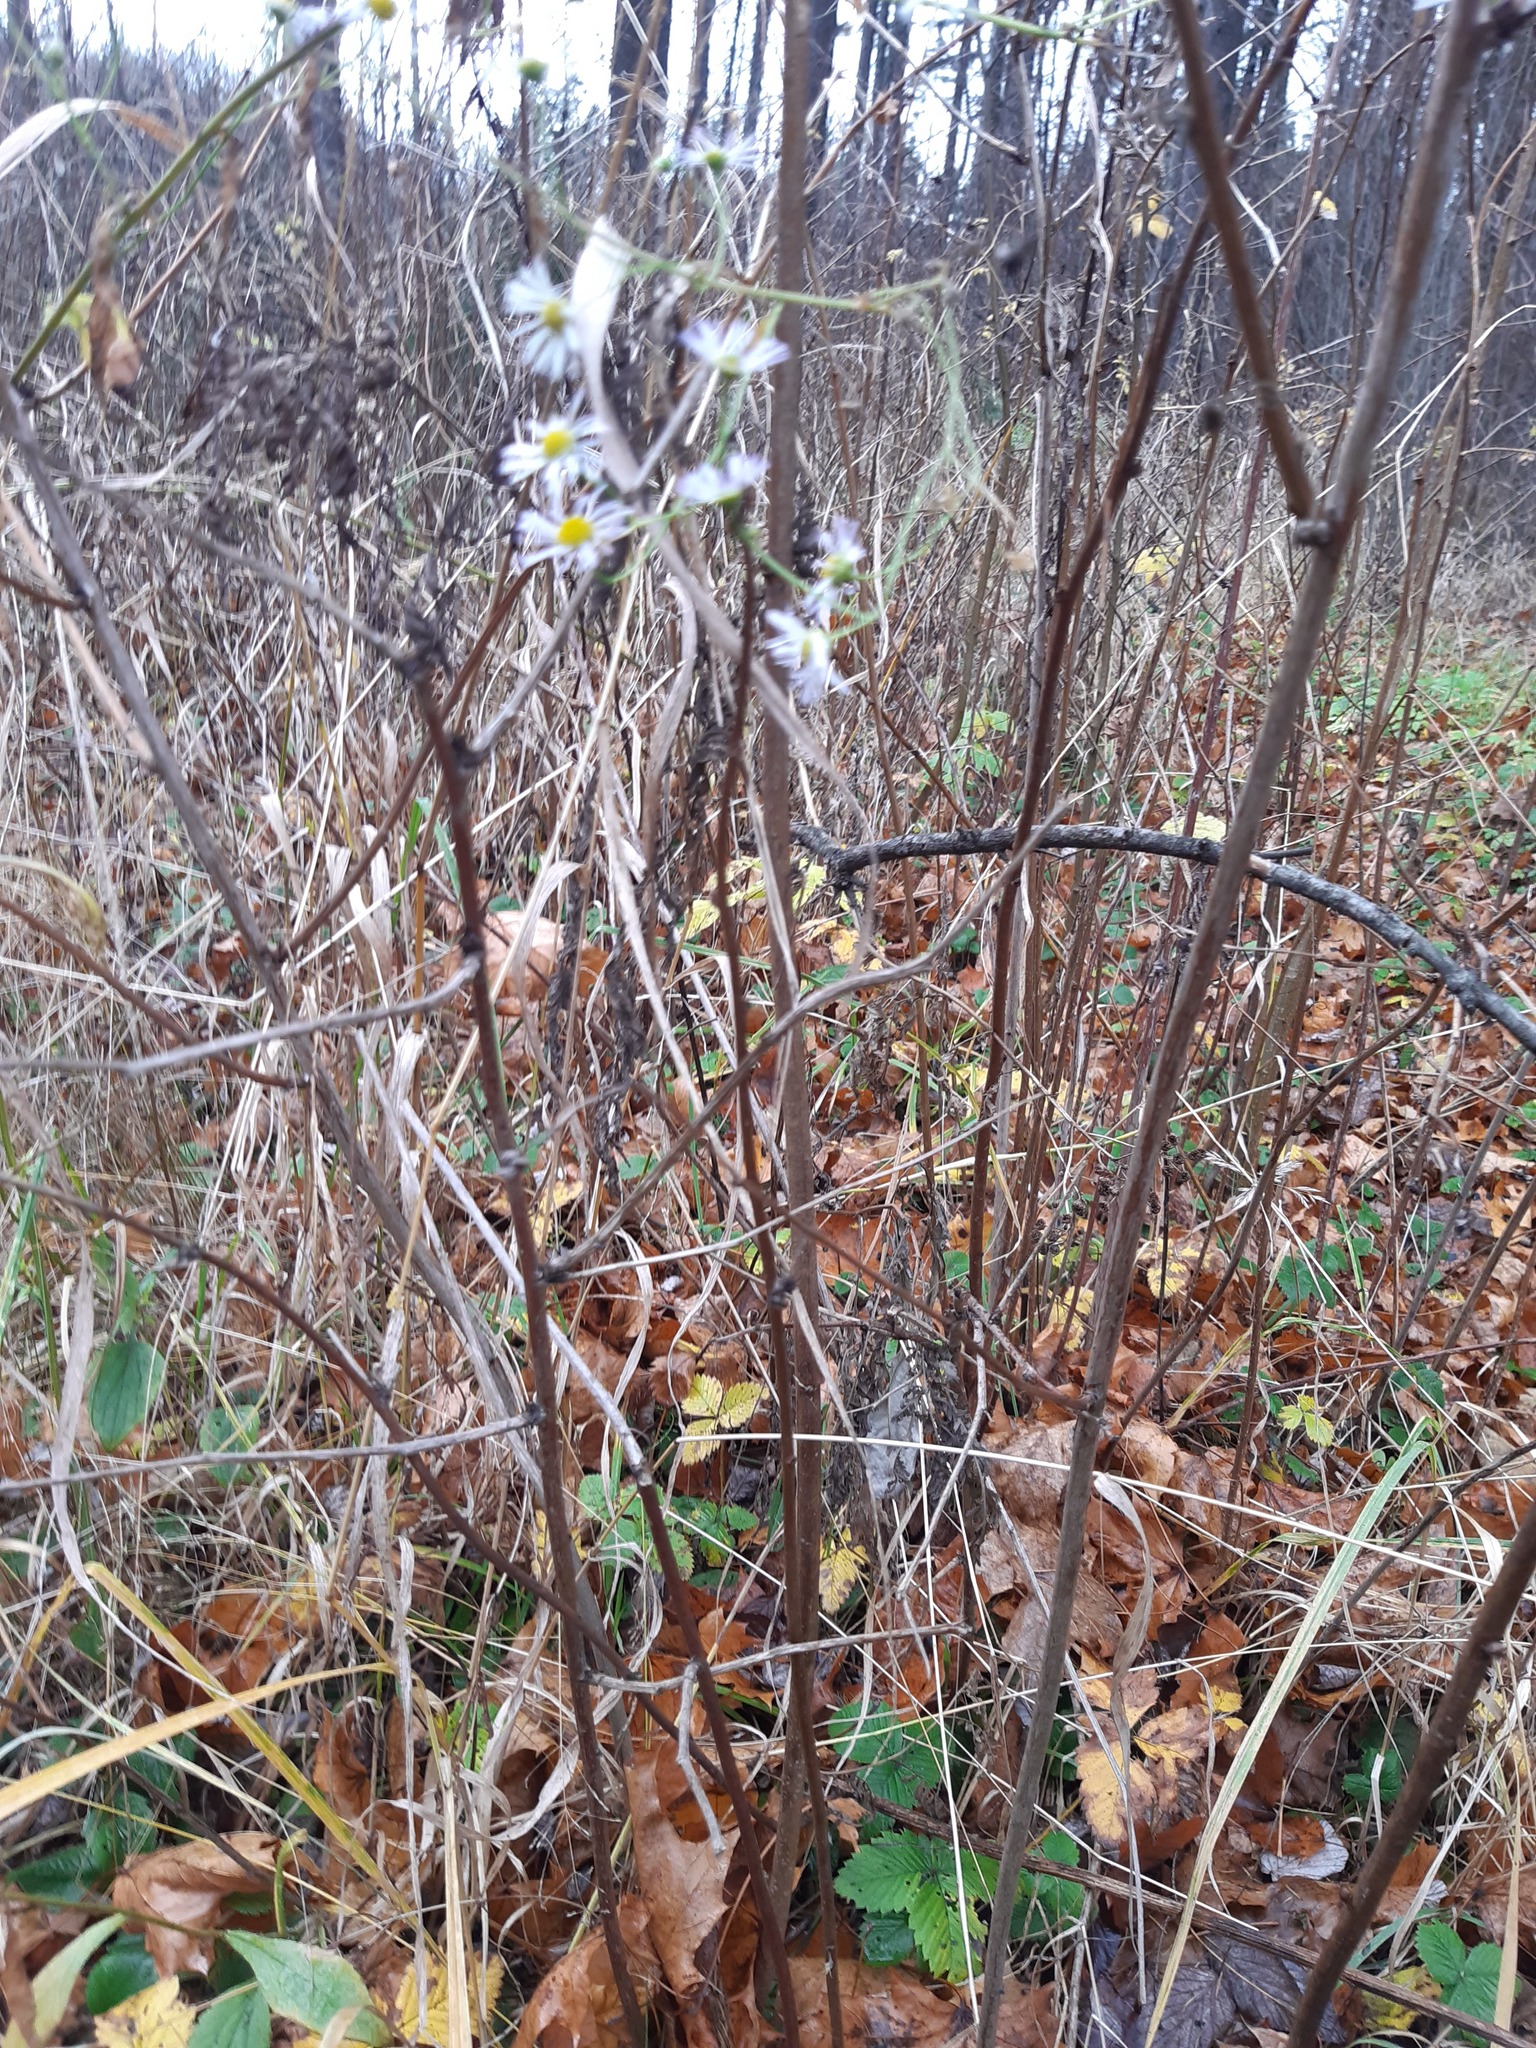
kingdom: Plantae
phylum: Tracheophyta
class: Magnoliopsida
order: Asterales
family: Asteraceae
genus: Erigeron
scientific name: Erigeron annuus
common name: Tall fleabane
